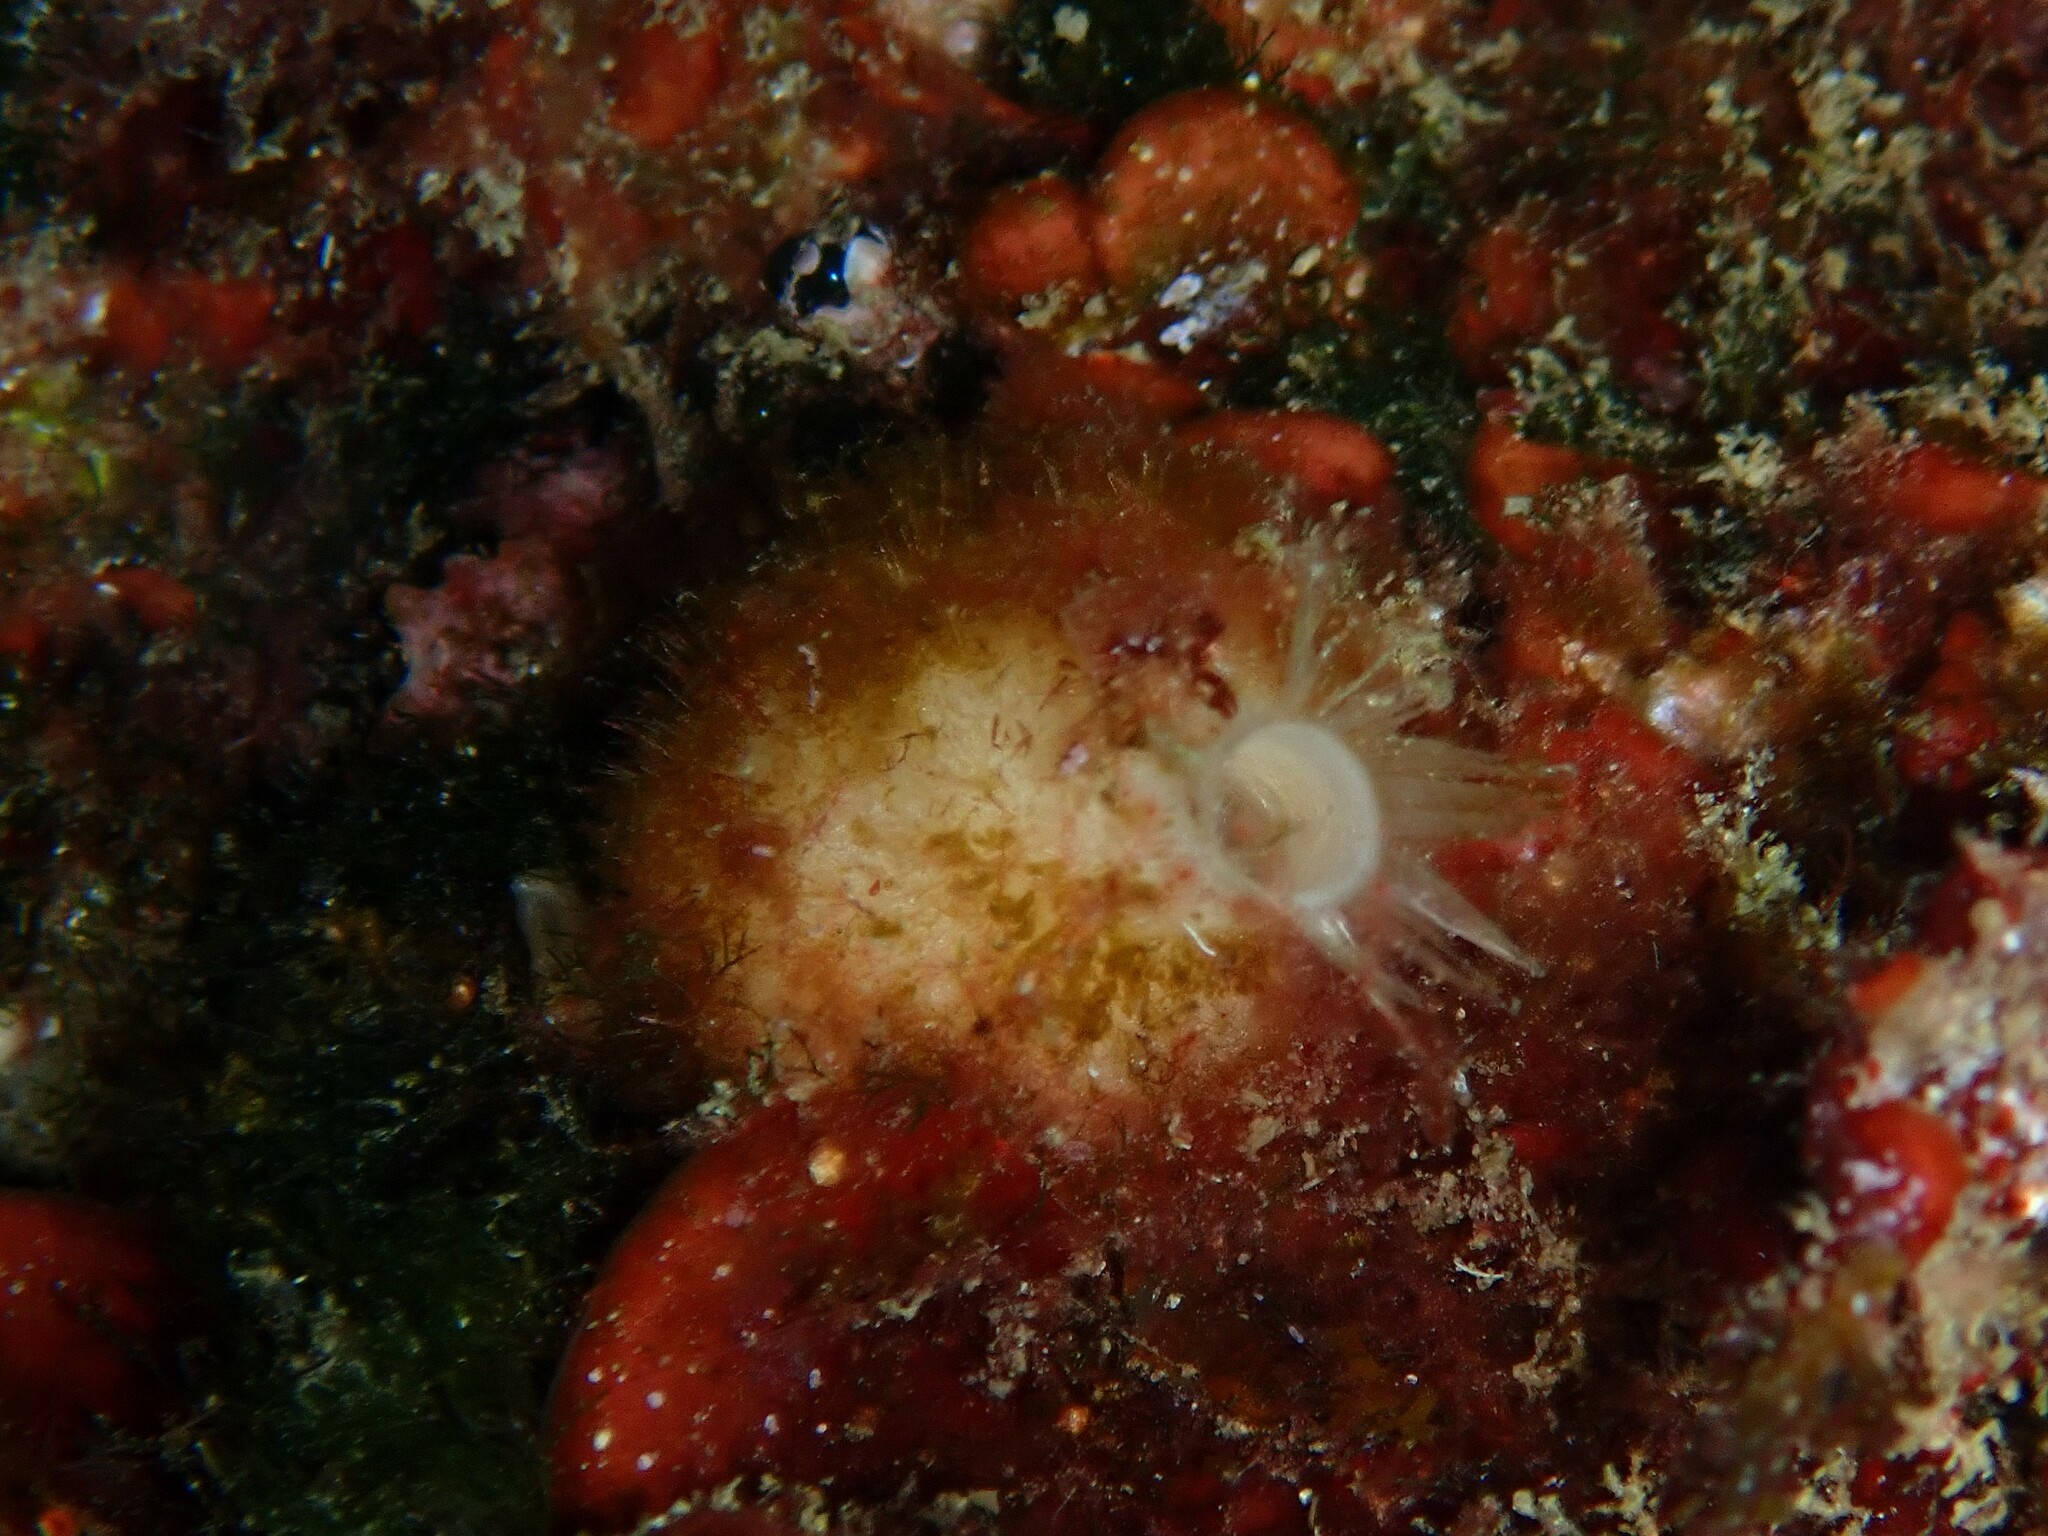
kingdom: Animalia
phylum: Porifera
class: Calcarea
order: Leucosolenida
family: Syconidae
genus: Sycon
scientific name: Sycon raphanus
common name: Bristly vase sponge
